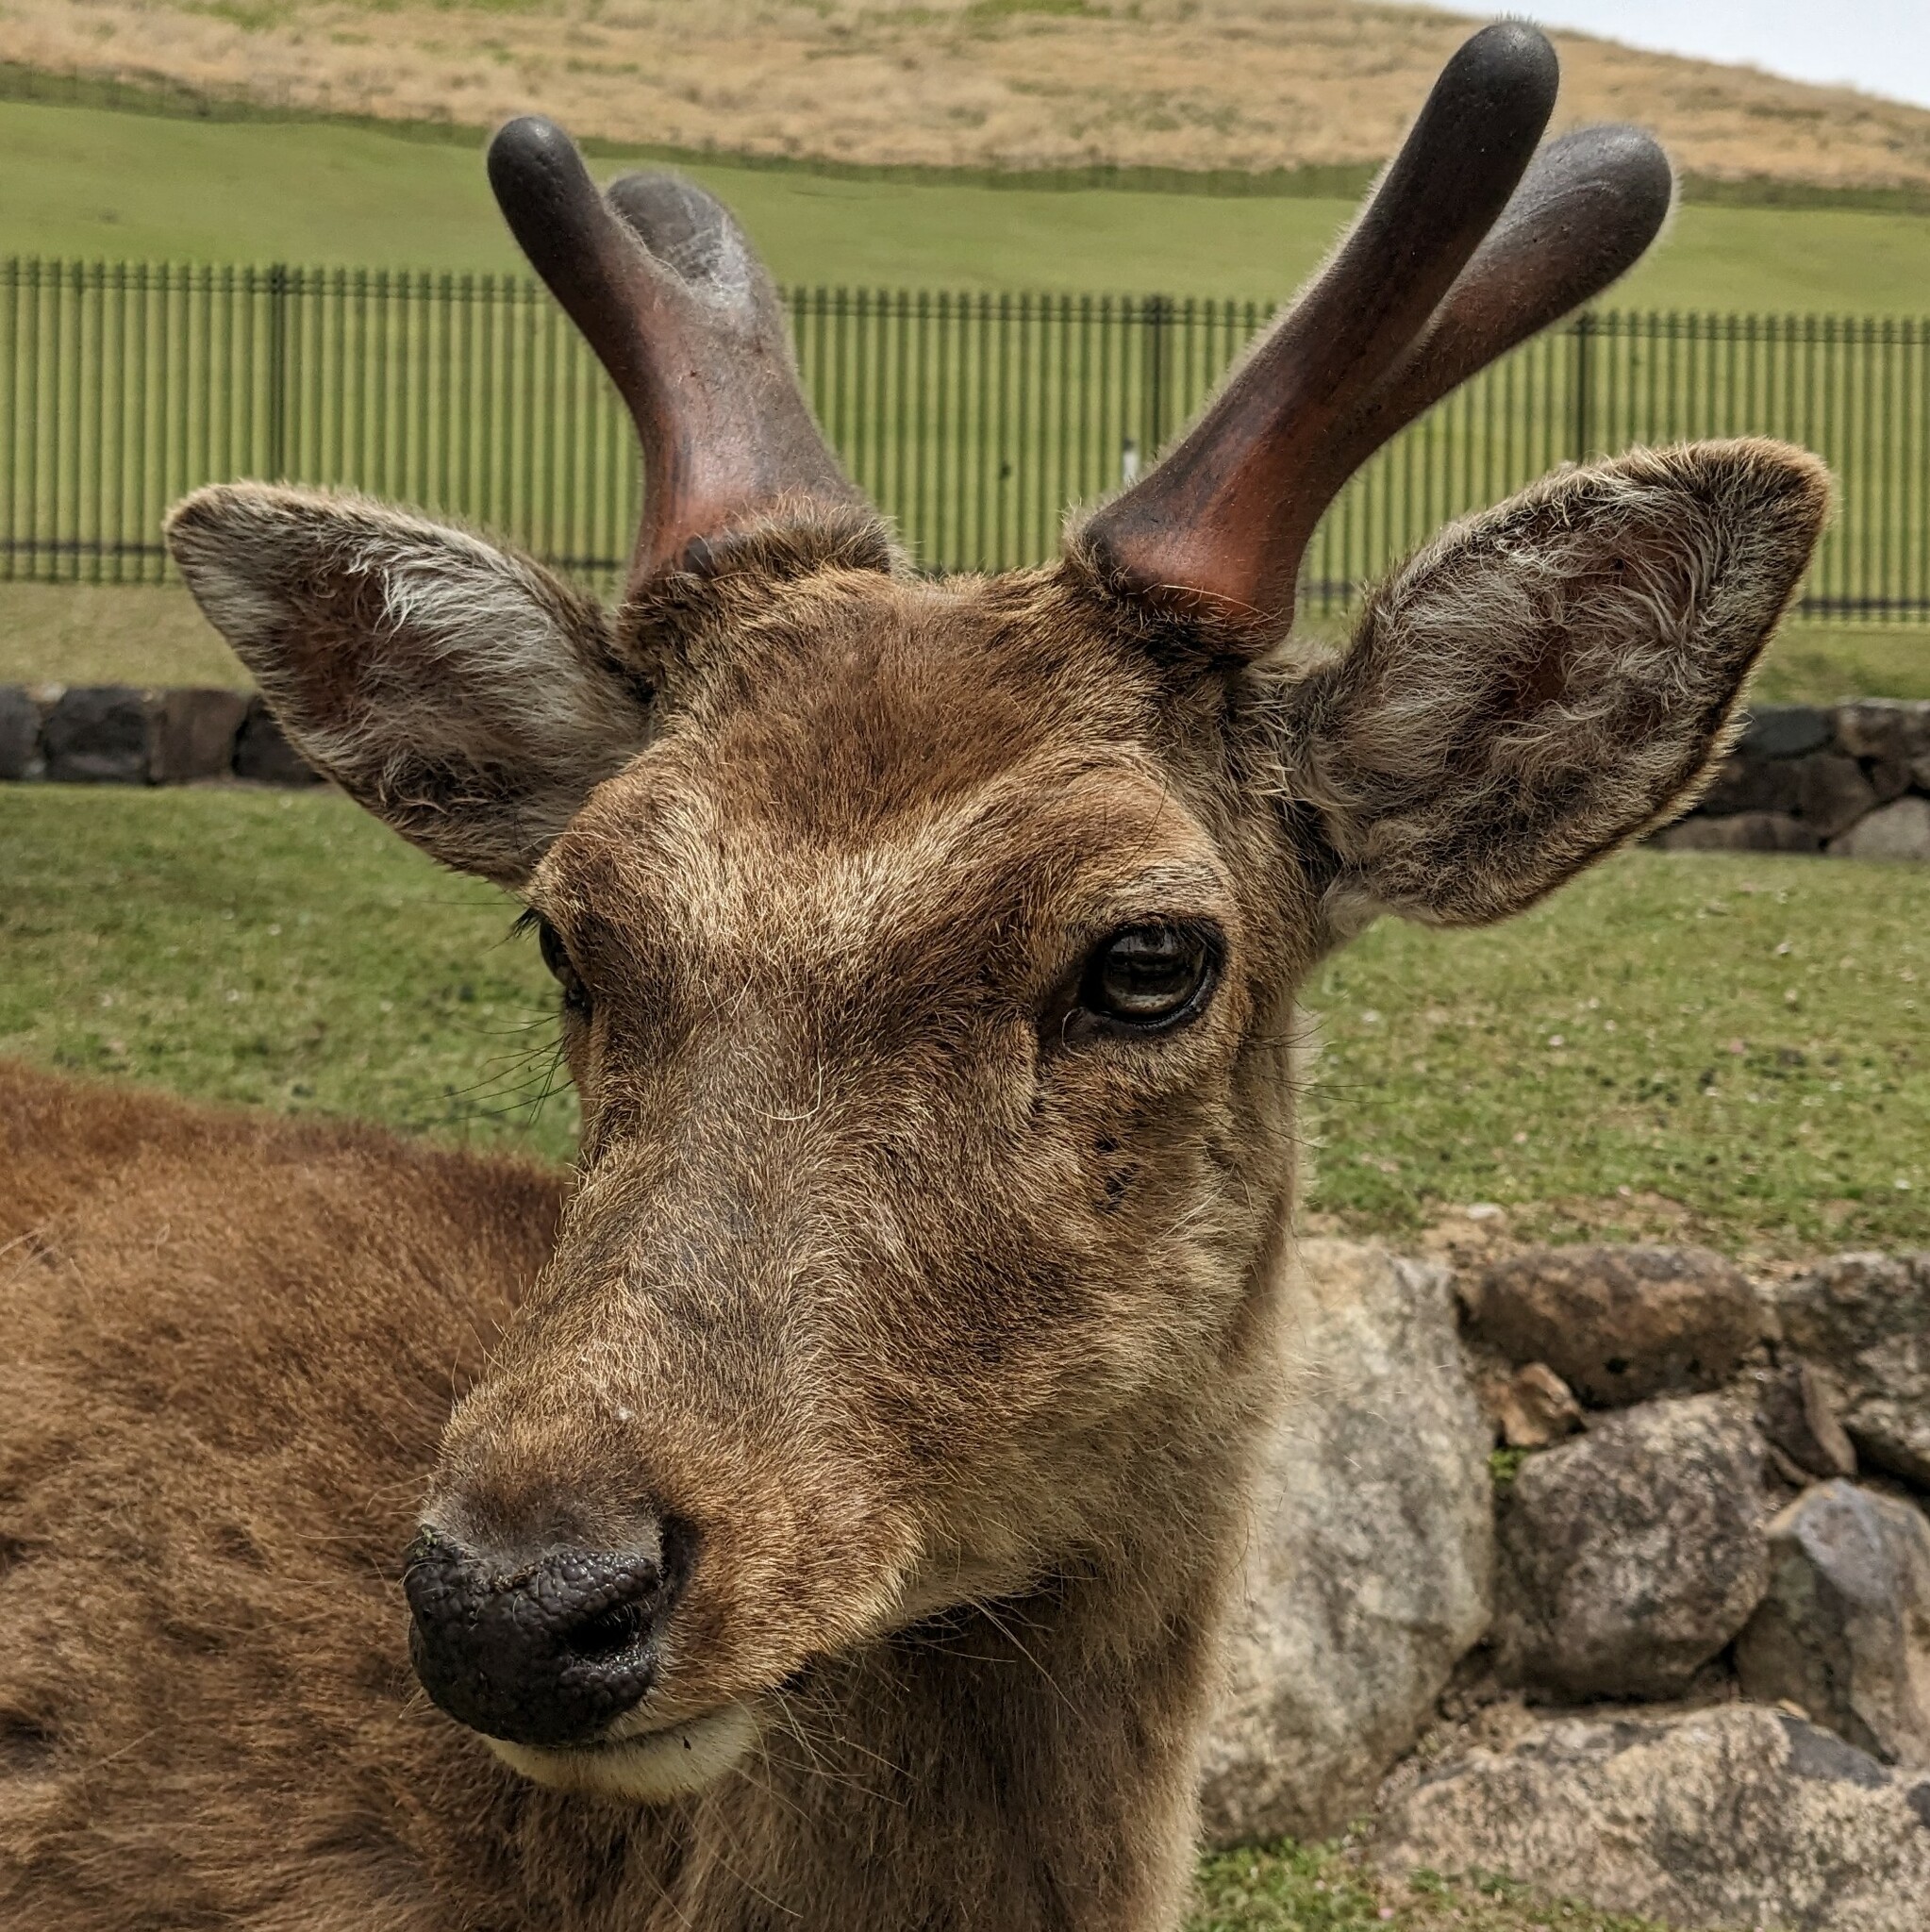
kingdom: Animalia
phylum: Chordata
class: Mammalia
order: Artiodactyla
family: Cervidae
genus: Cervus
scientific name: Cervus nippon
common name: Sika deer
